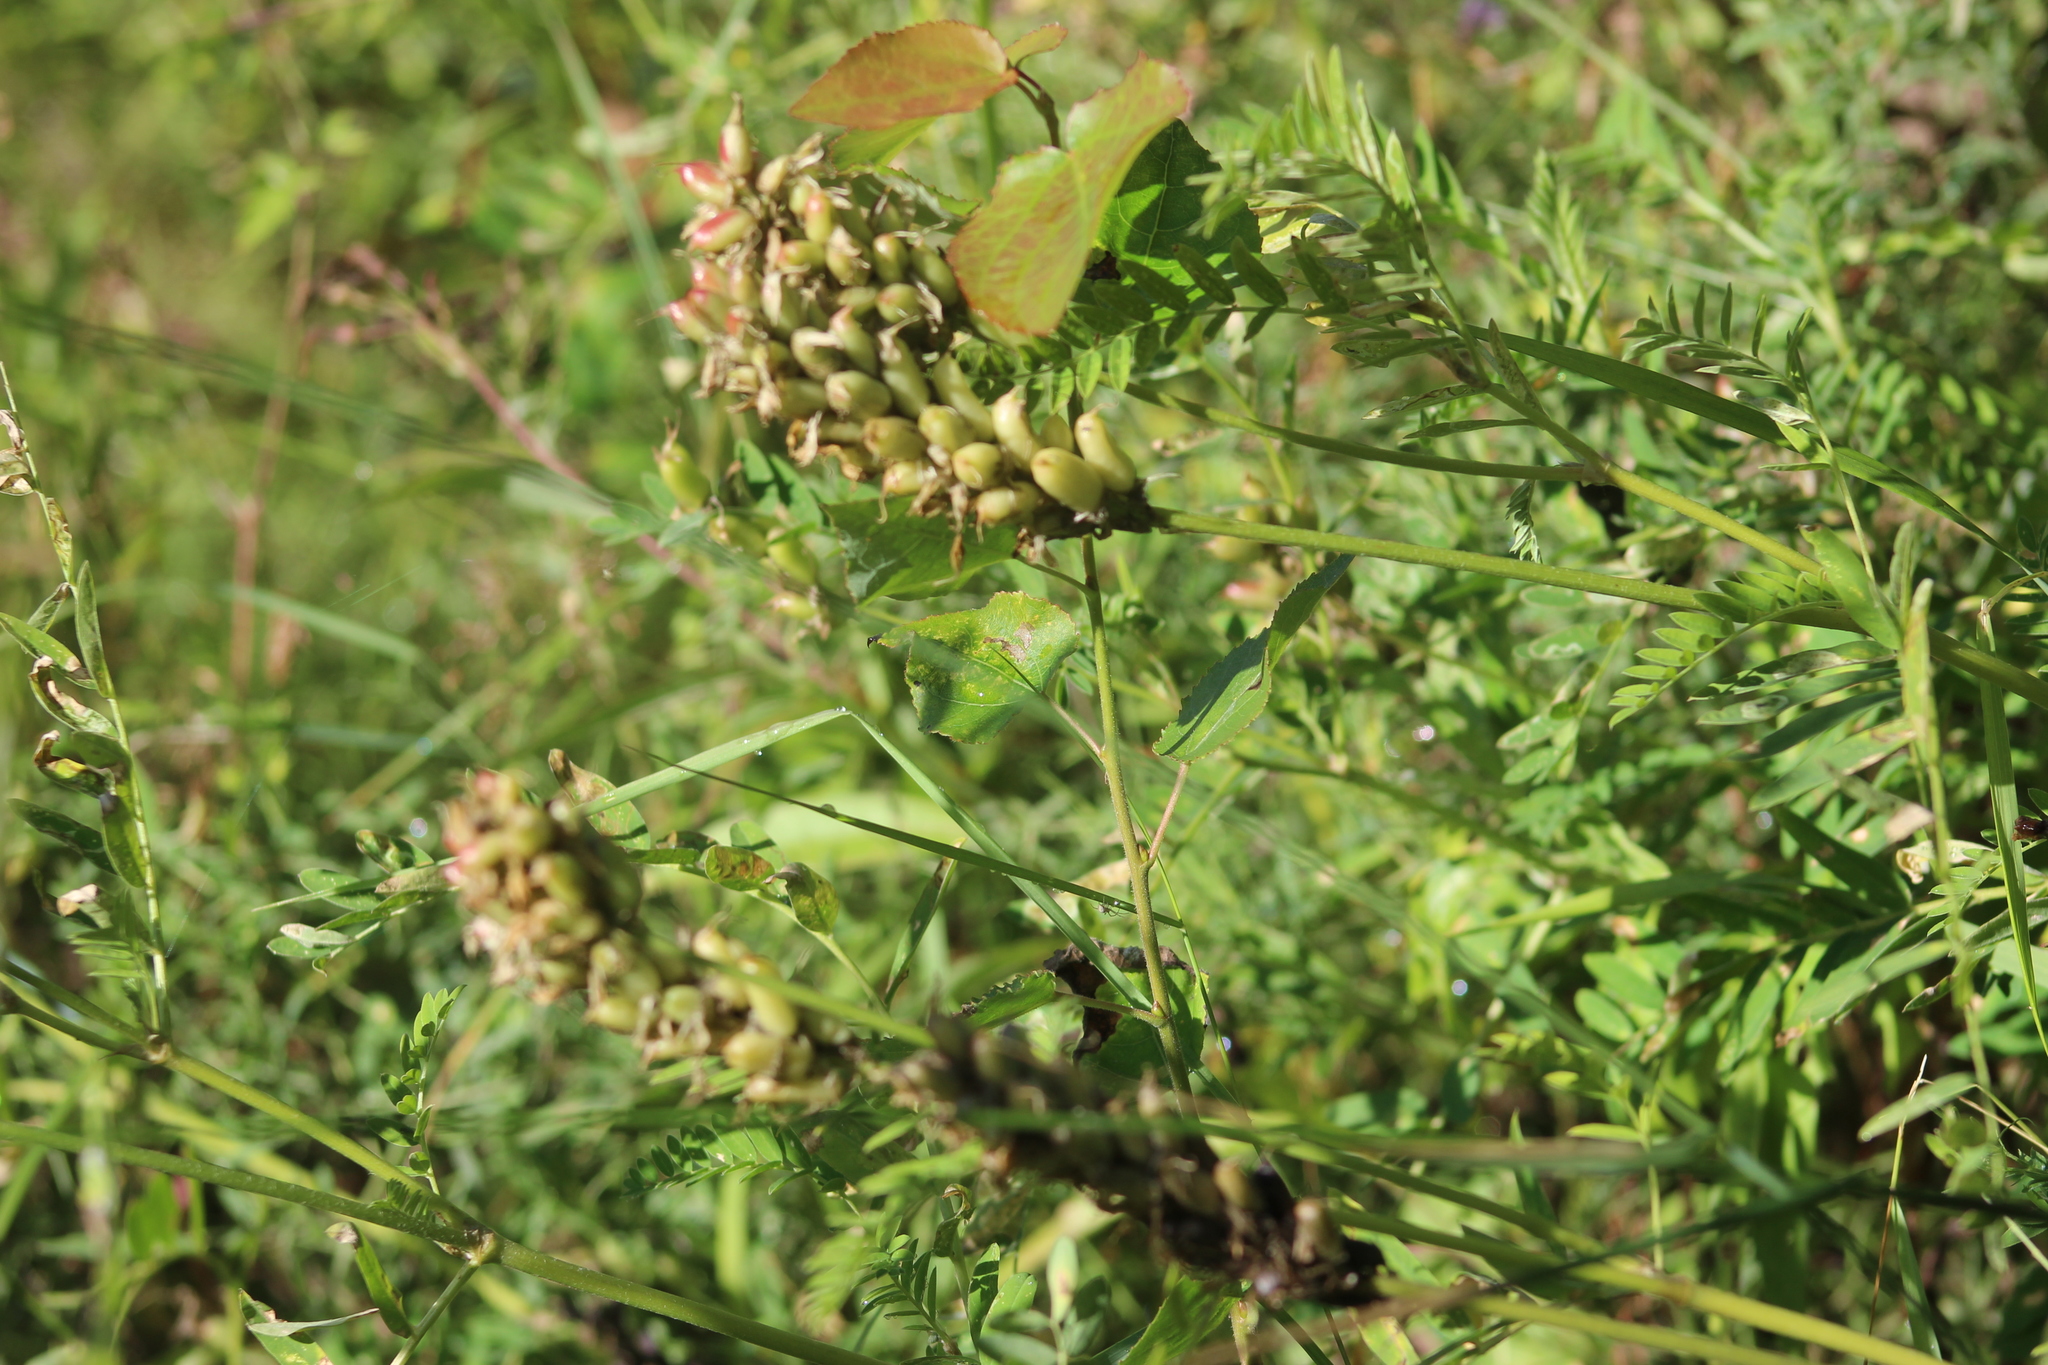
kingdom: Plantae
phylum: Tracheophyta
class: Magnoliopsida
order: Fabales
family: Fabaceae
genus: Astragalus
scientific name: Astragalus uliginosus
